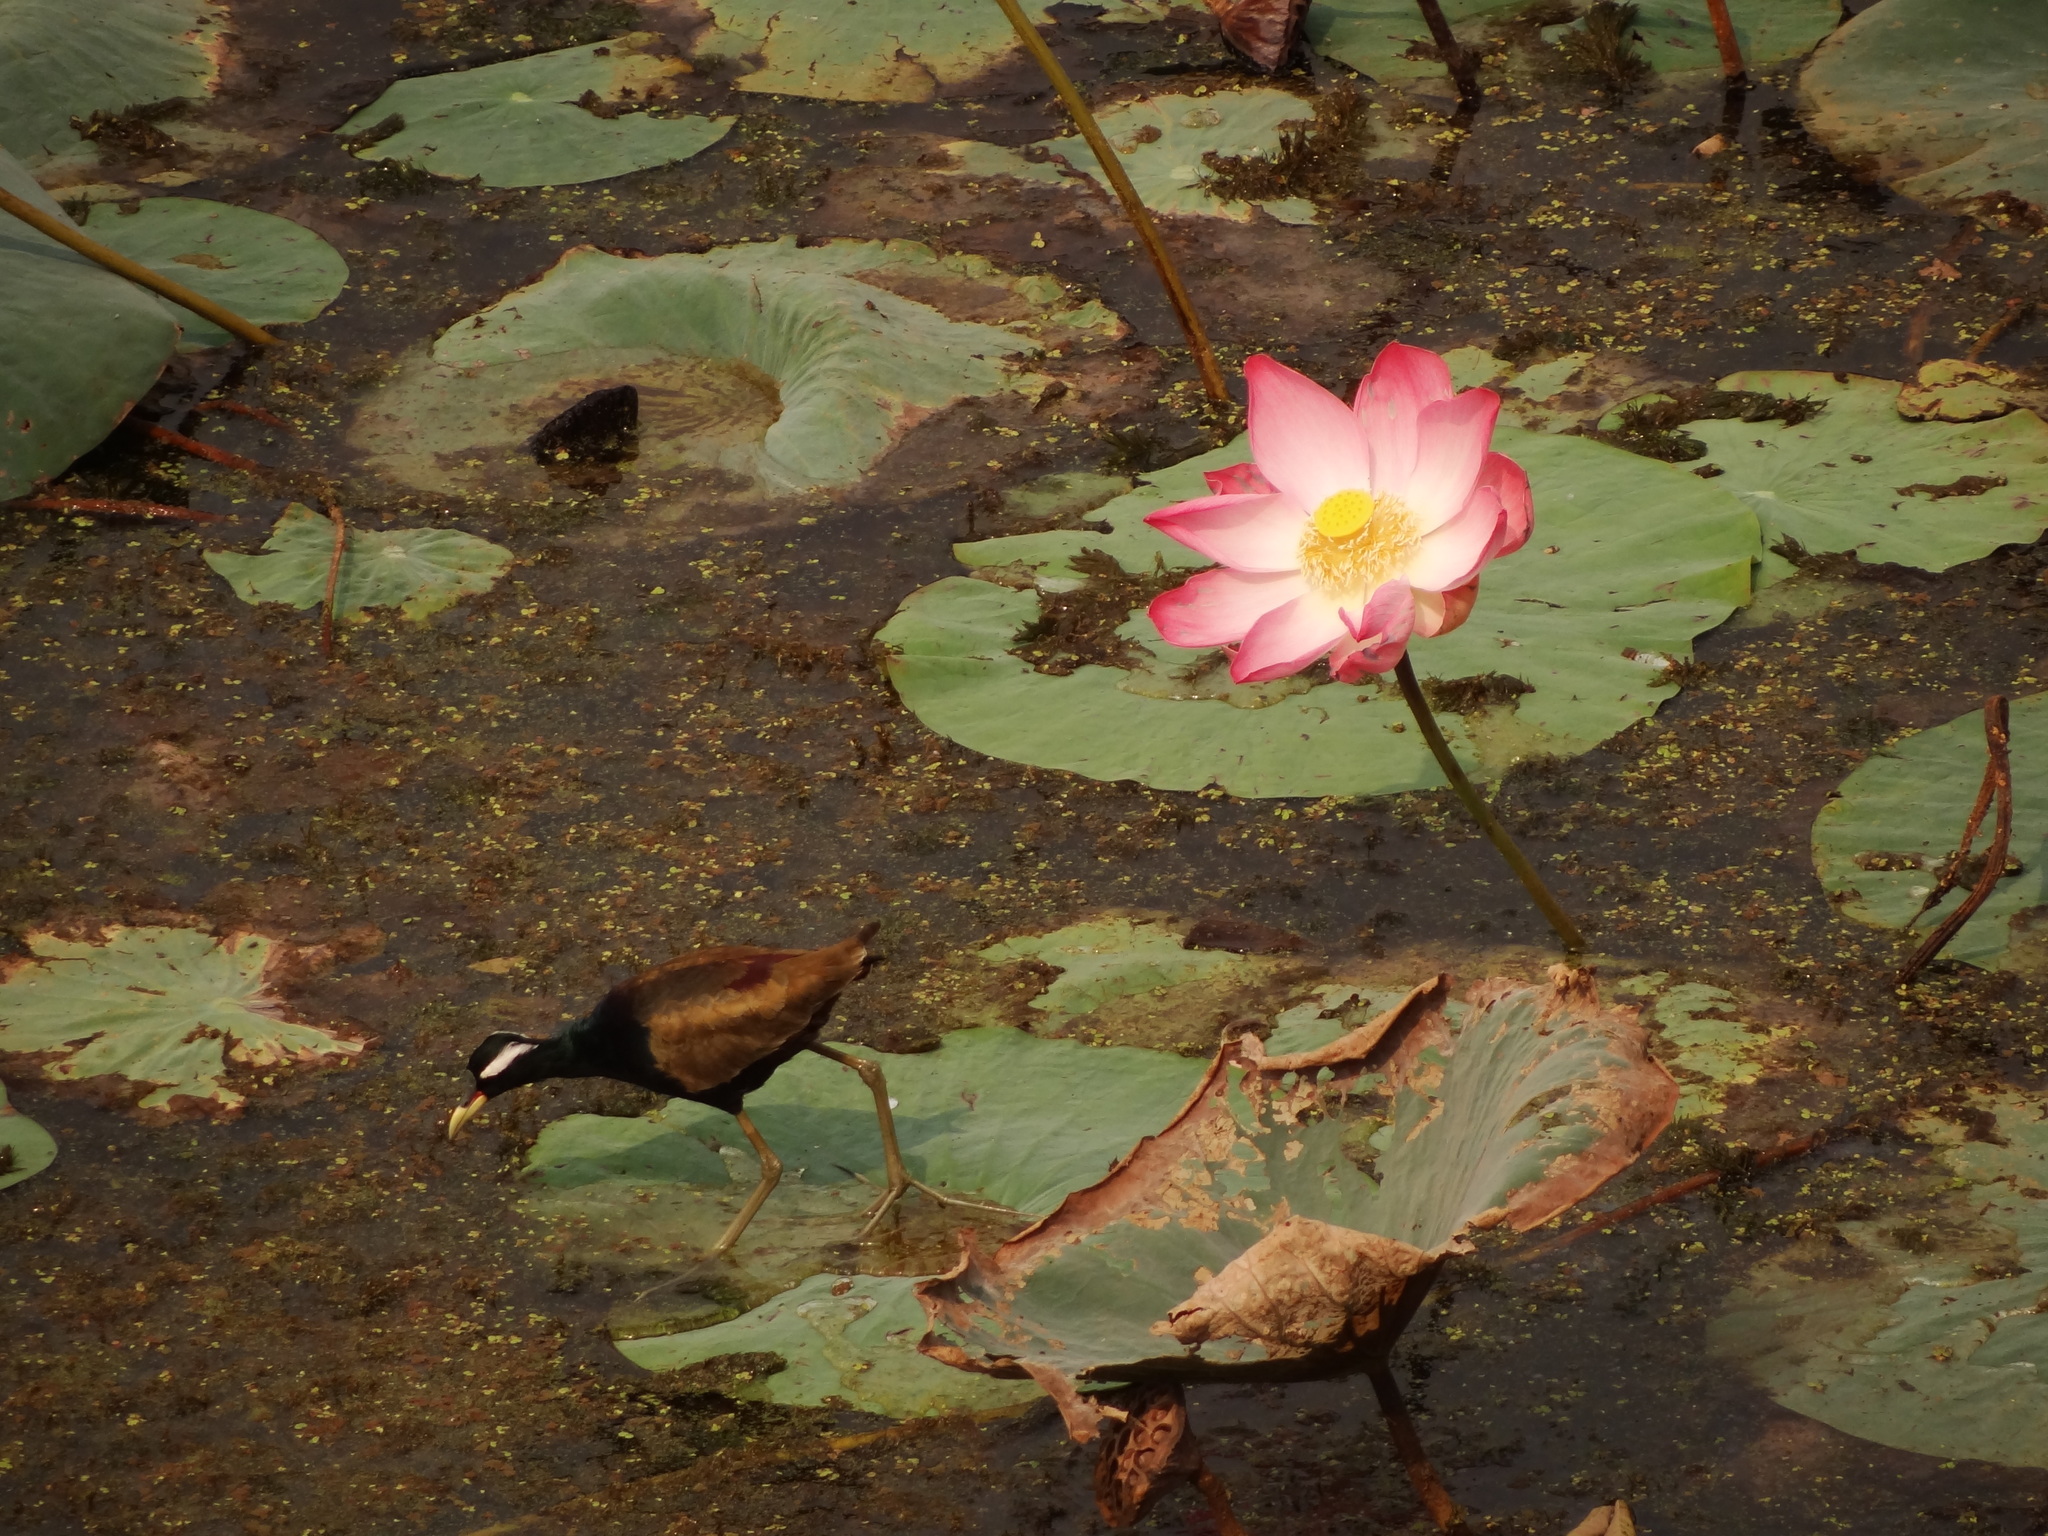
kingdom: Animalia
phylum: Chordata
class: Aves
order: Charadriiformes
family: Jacanidae
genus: Metopidius
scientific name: Metopidius indicus
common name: Bronze-winged jacana
